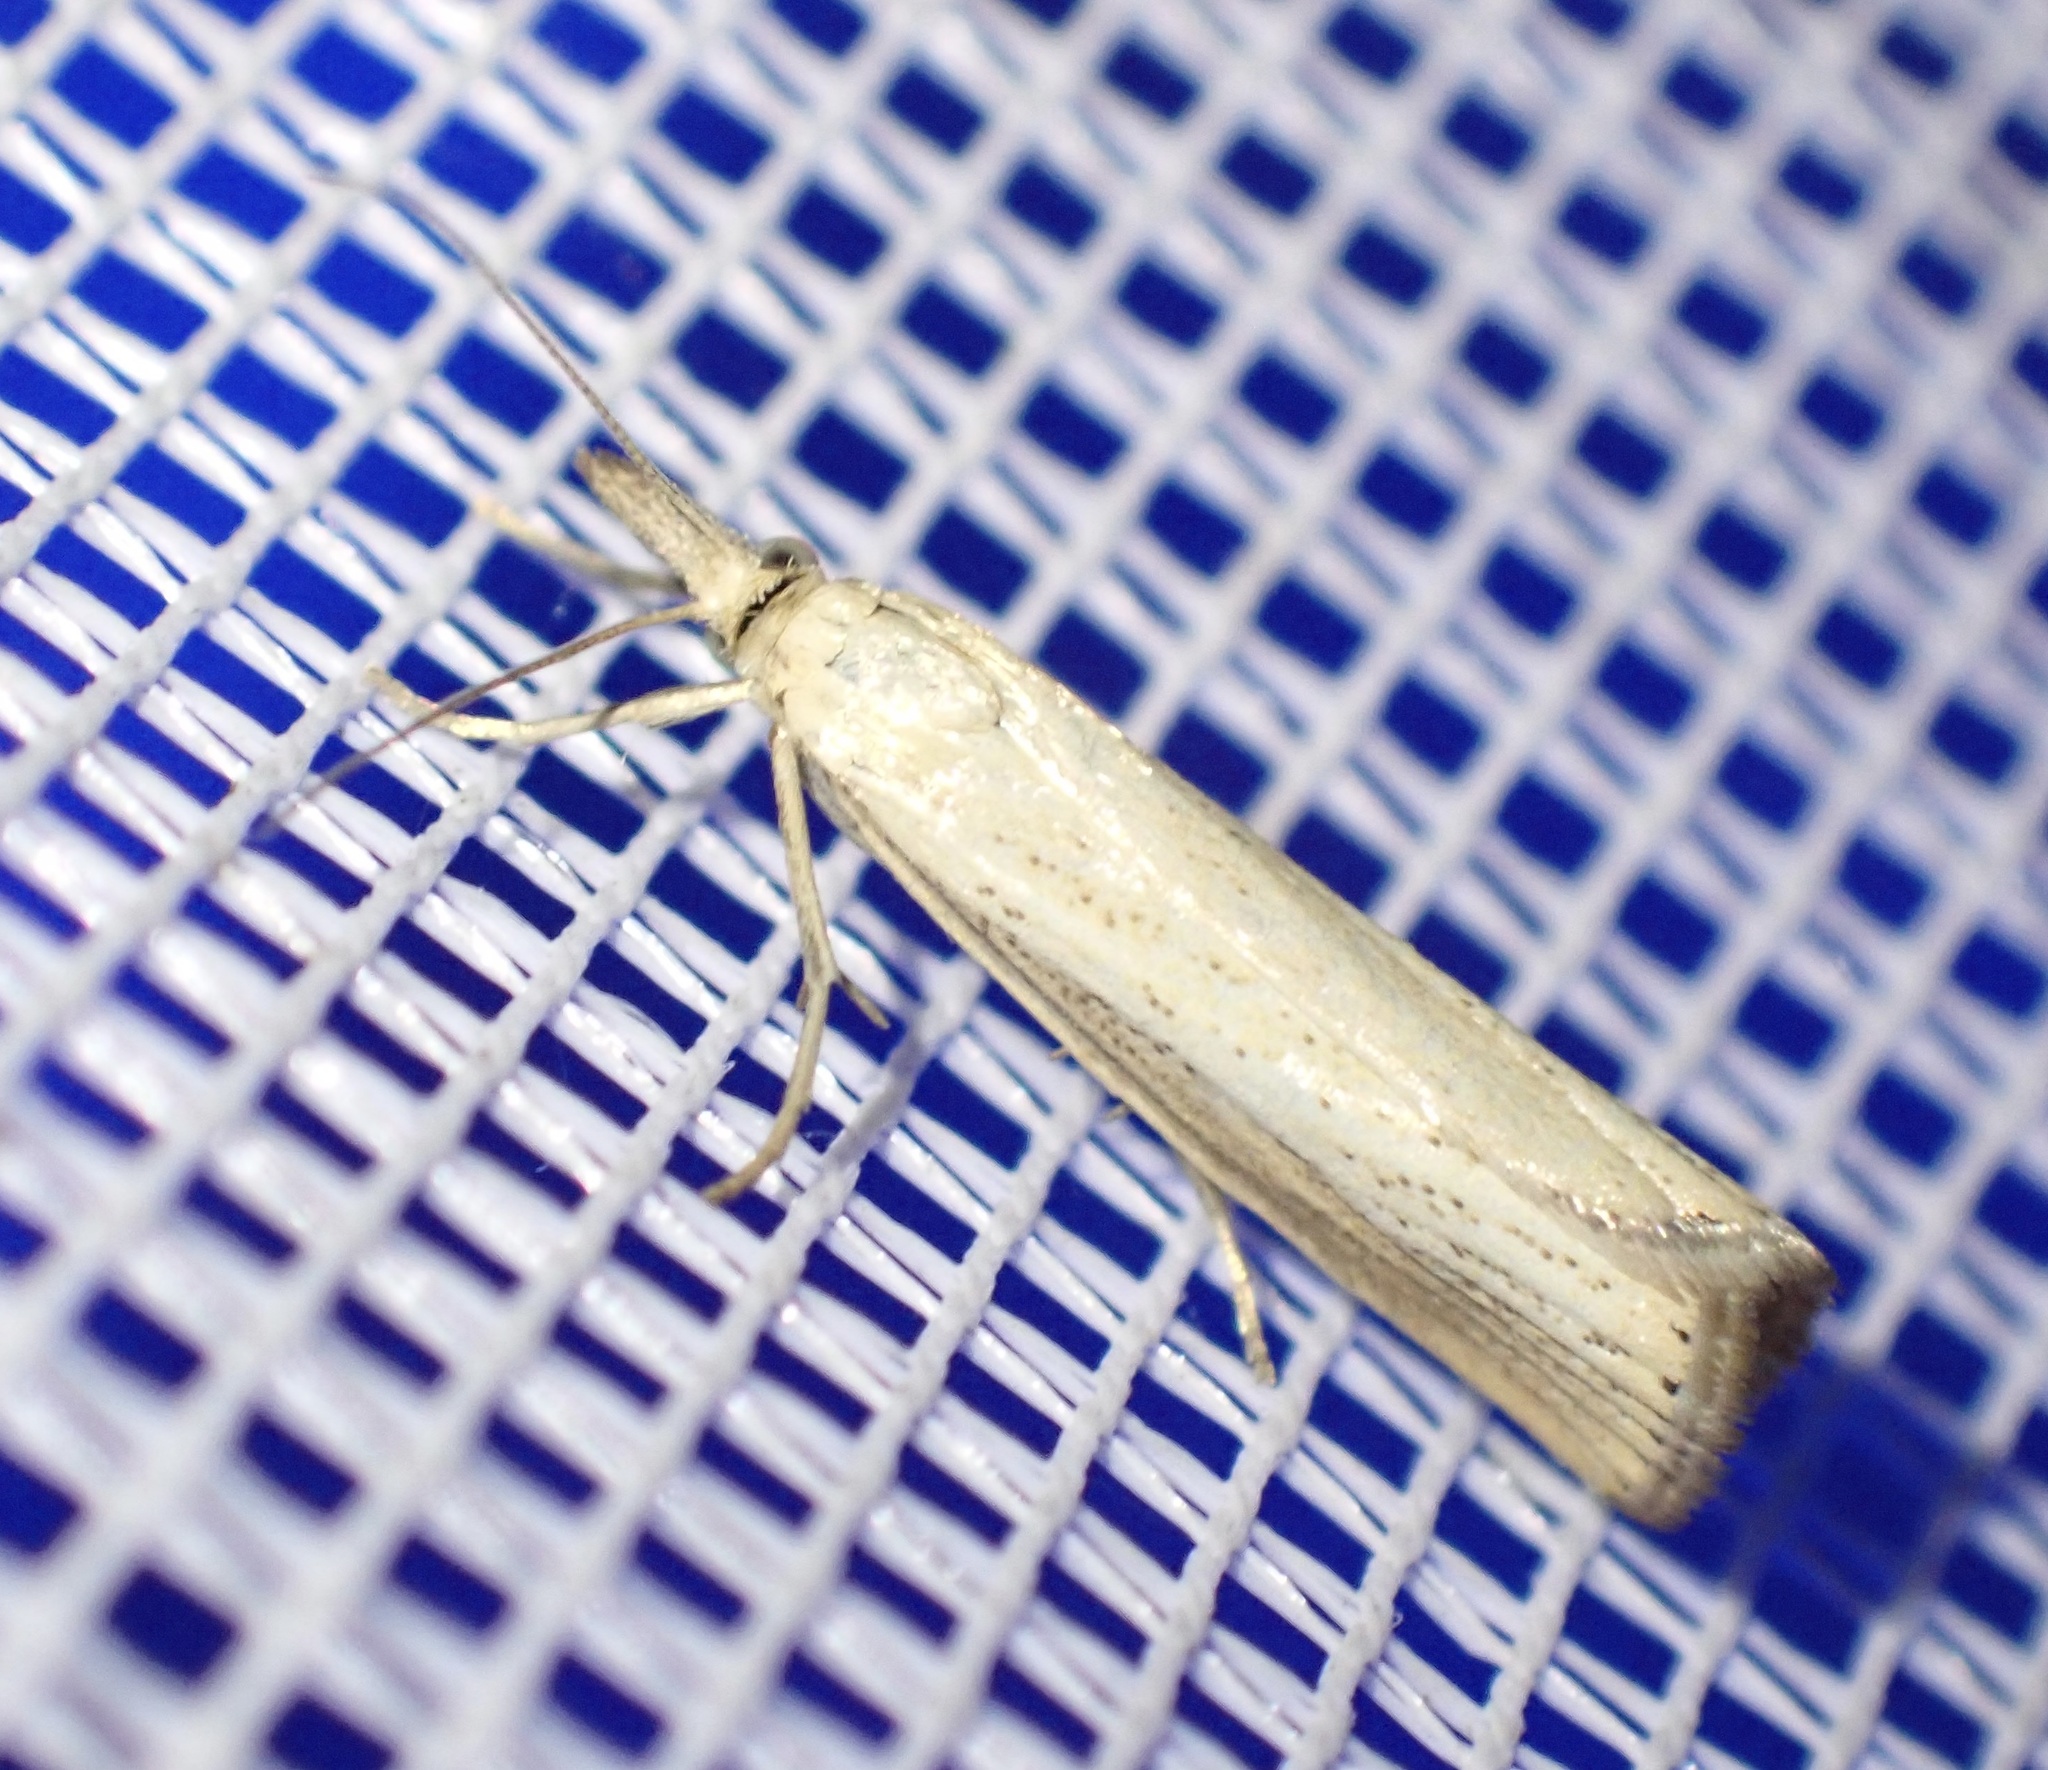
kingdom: Animalia
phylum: Arthropoda
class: Insecta
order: Lepidoptera
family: Crambidae
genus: Agriphila
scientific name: Agriphila straminella
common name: Straw grass-veneer
